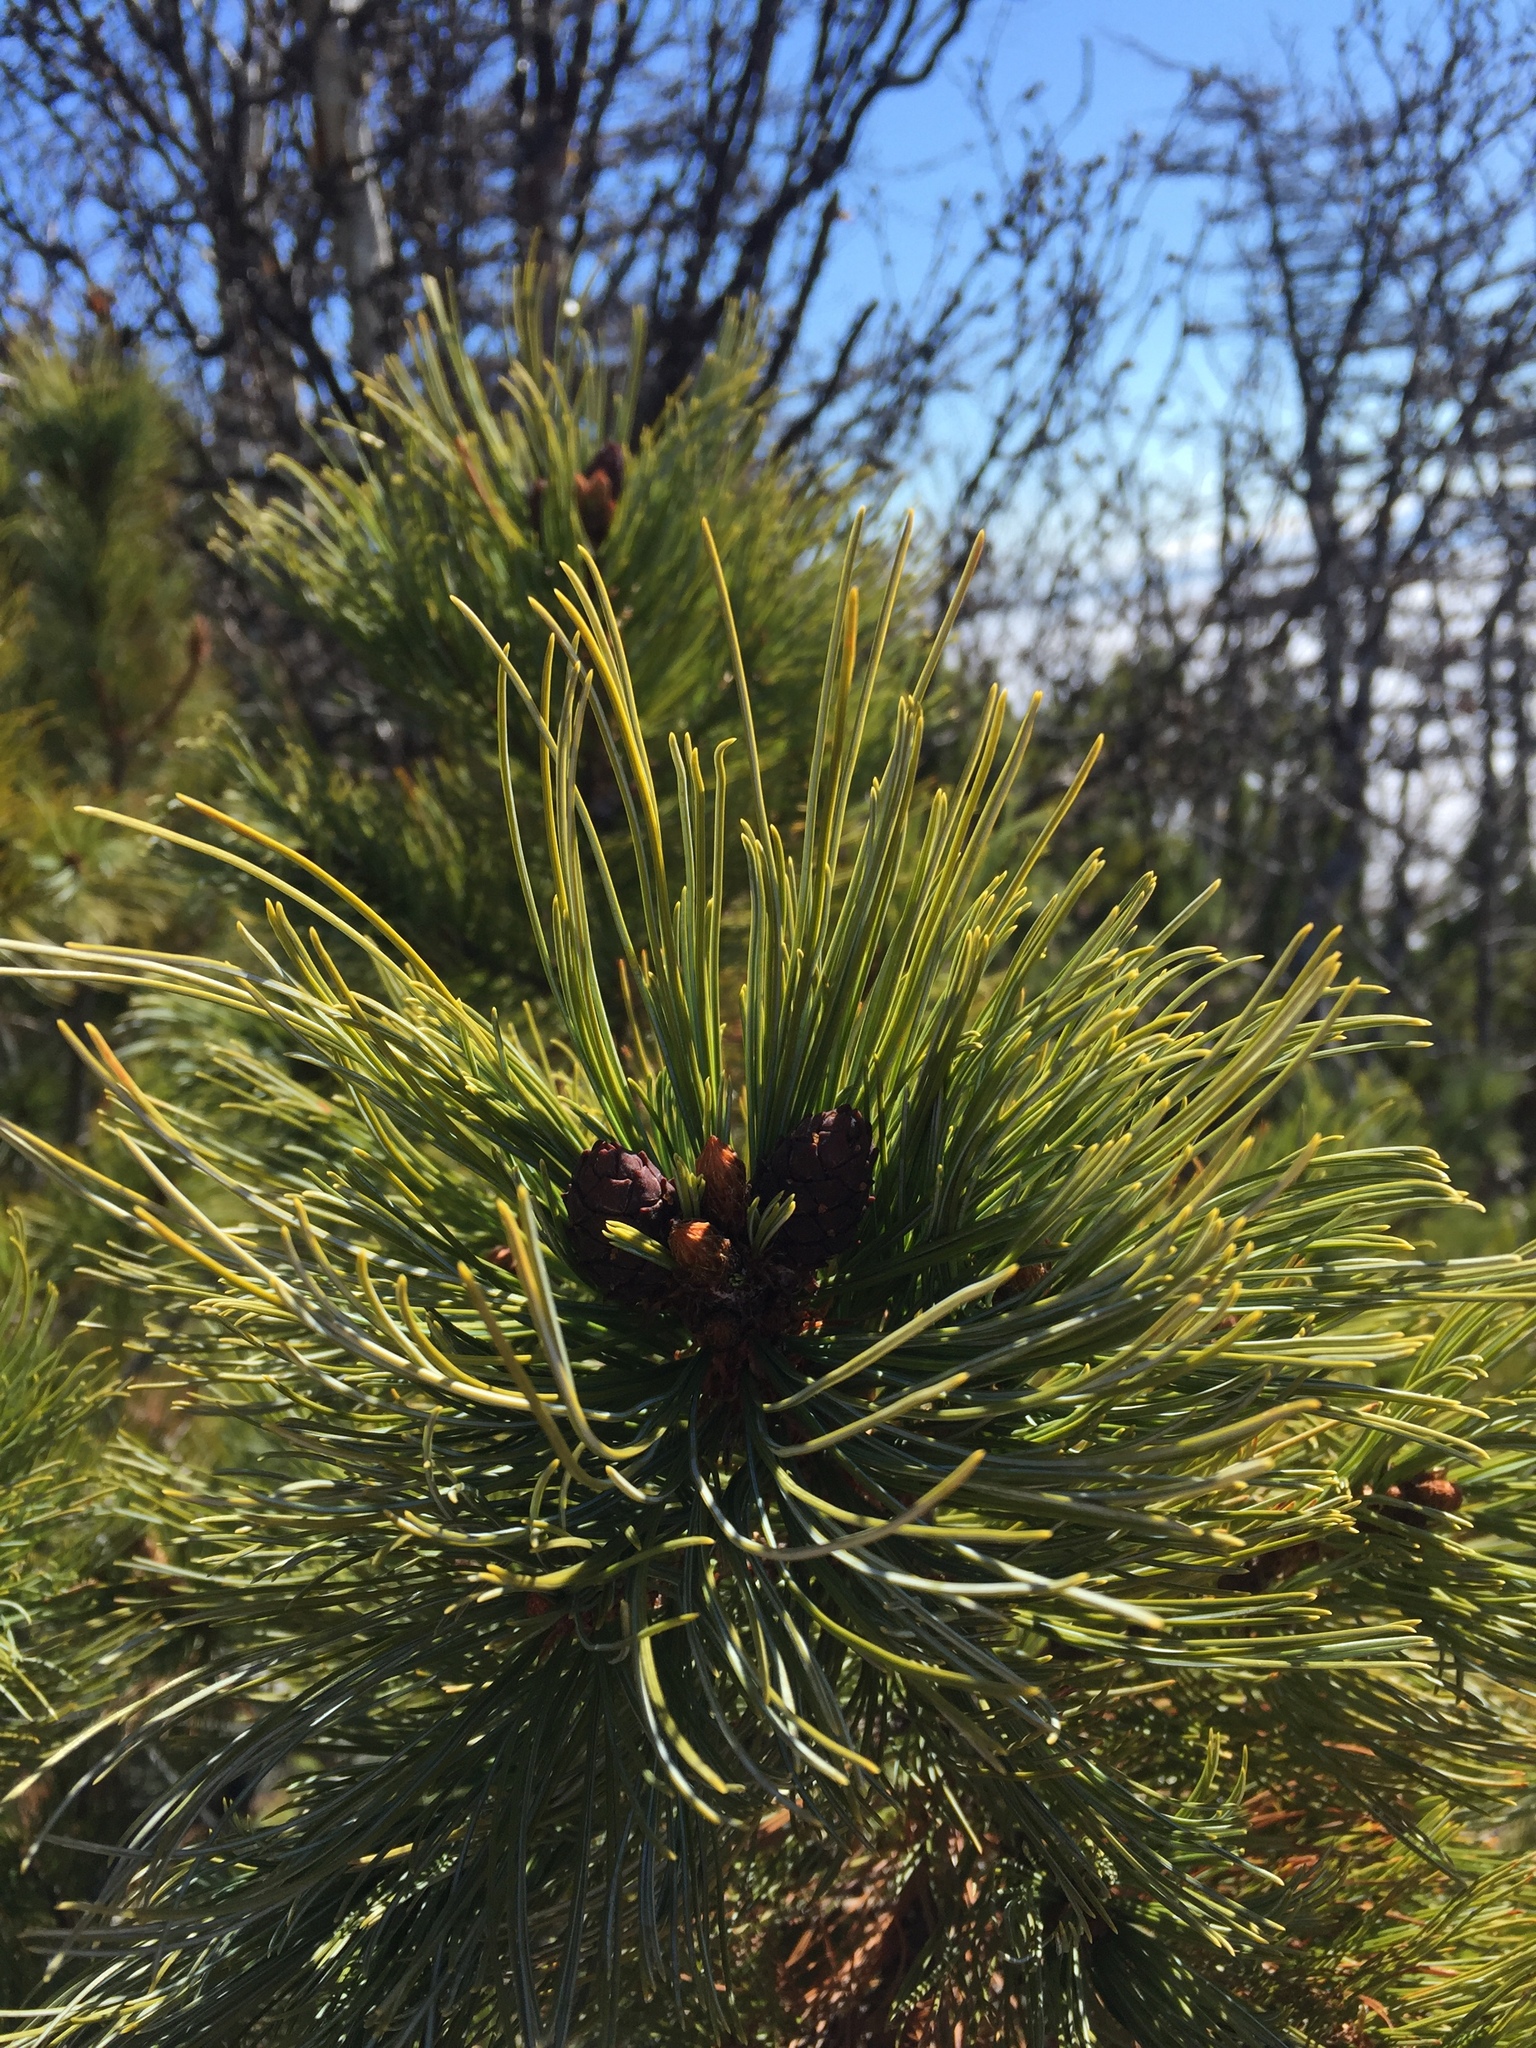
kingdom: Plantae
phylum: Tracheophyta
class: Pinopsida
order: Pinales
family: Pinaceae
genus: Pinus
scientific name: Pinus pumila
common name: Dwarf siberian pine
